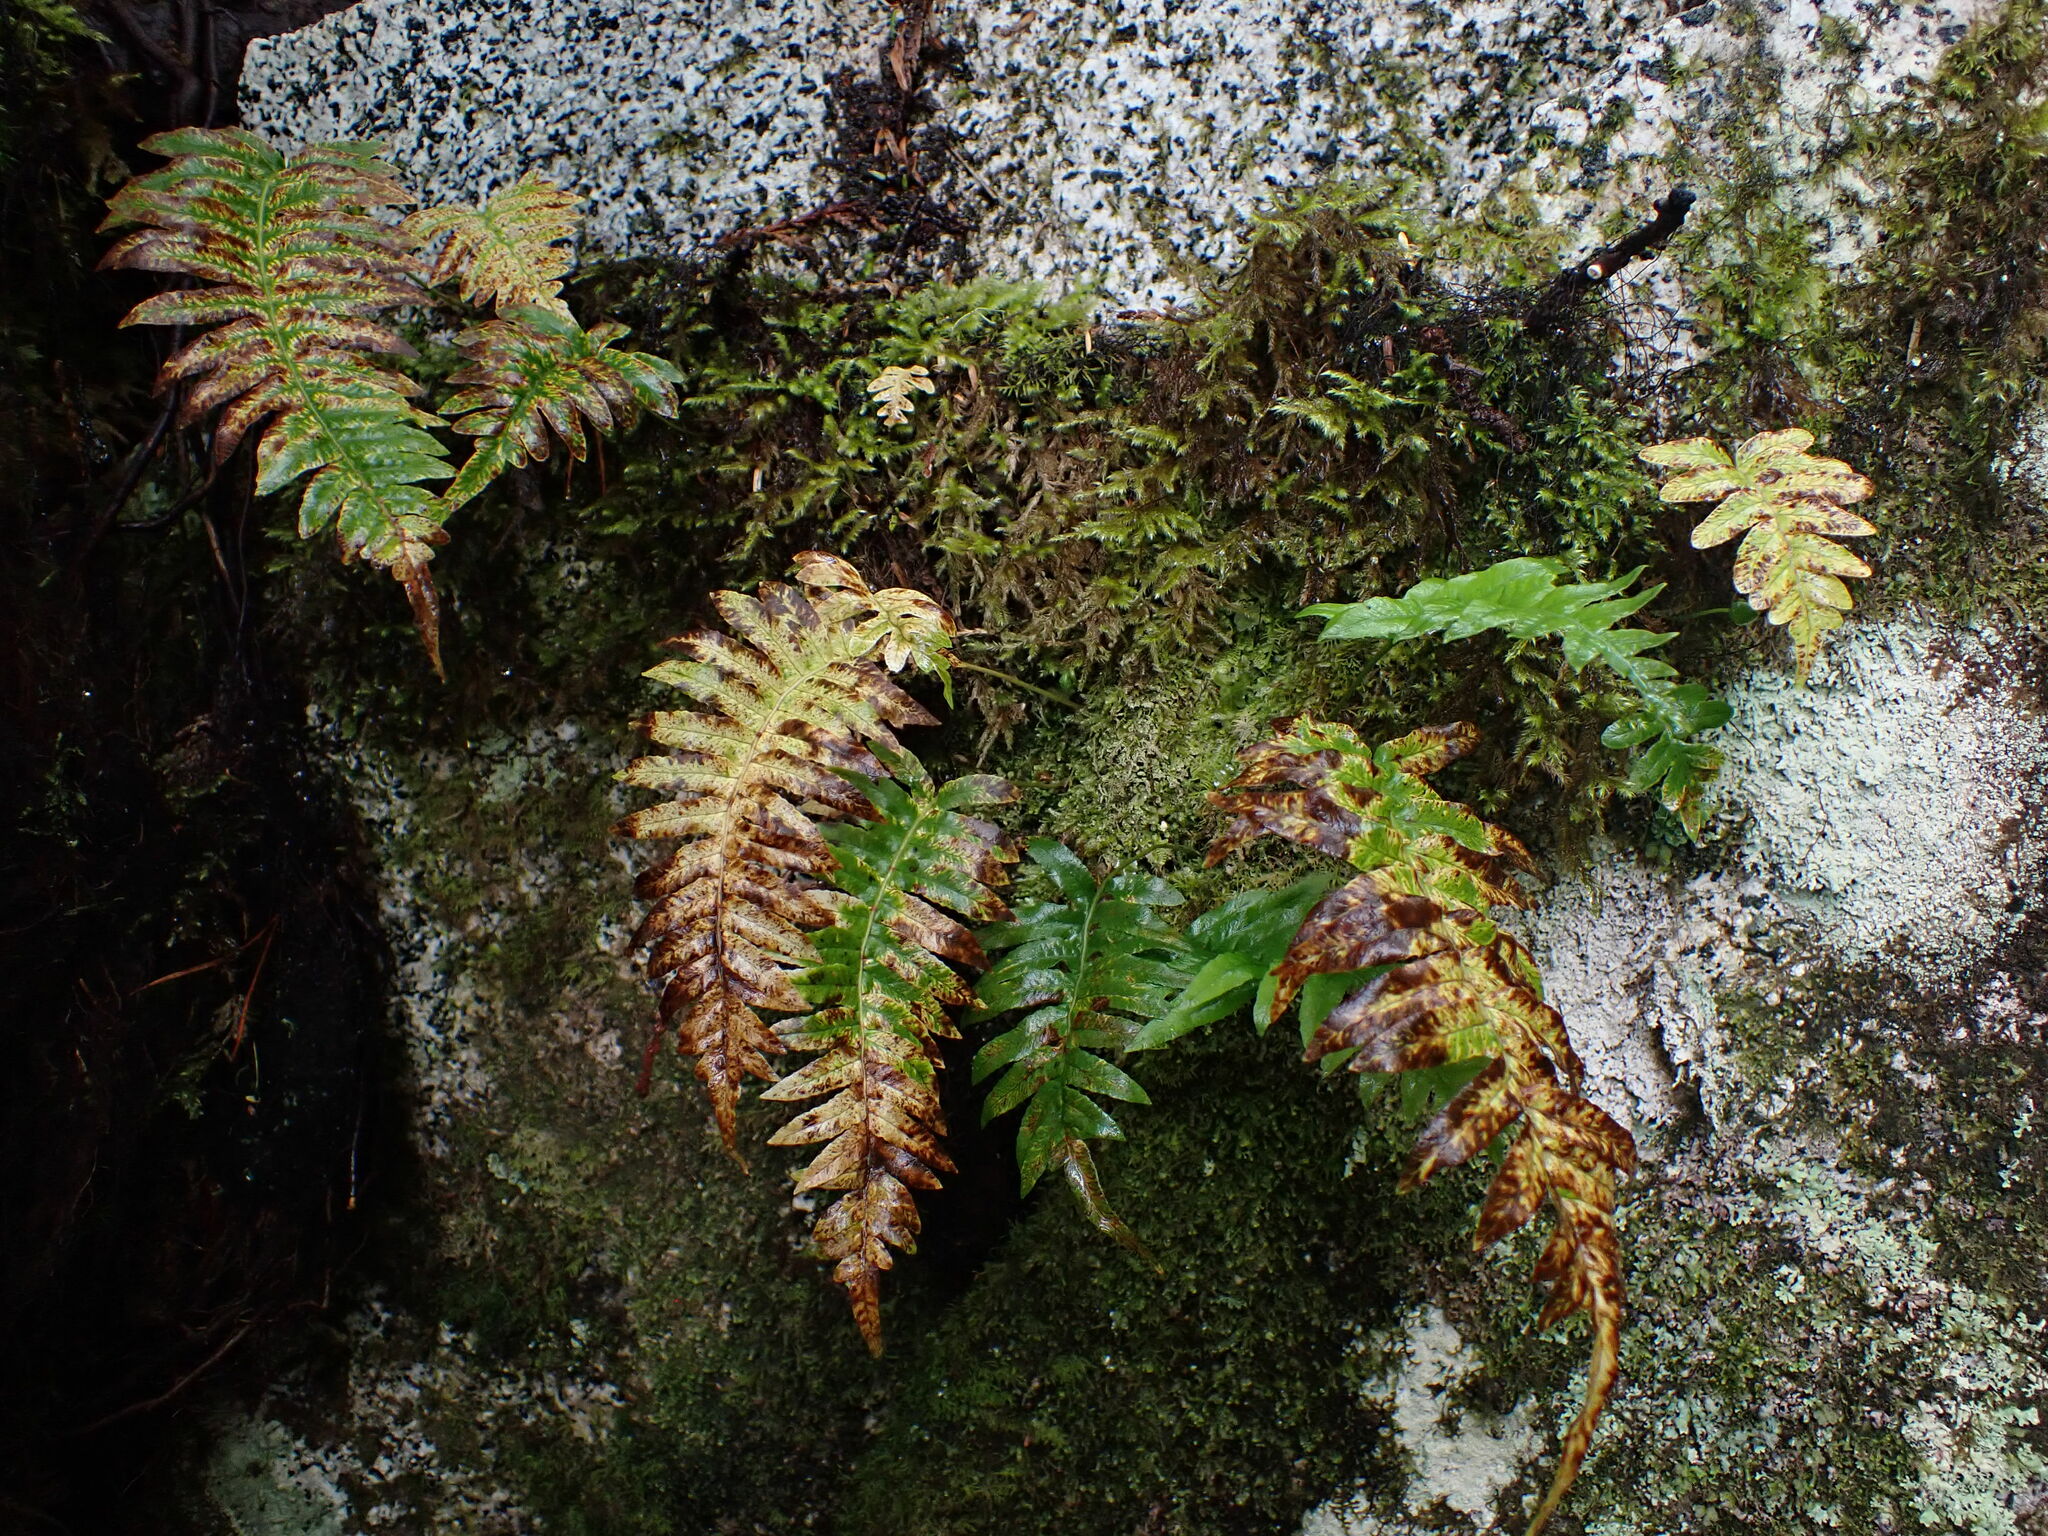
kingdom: Plantae
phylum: Tracheophyta
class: Polypodiopsida
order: Polypodiales
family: Polypodiaceae
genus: Polypodium
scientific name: Polypodium glycyrrhiza
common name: Licorice fern
